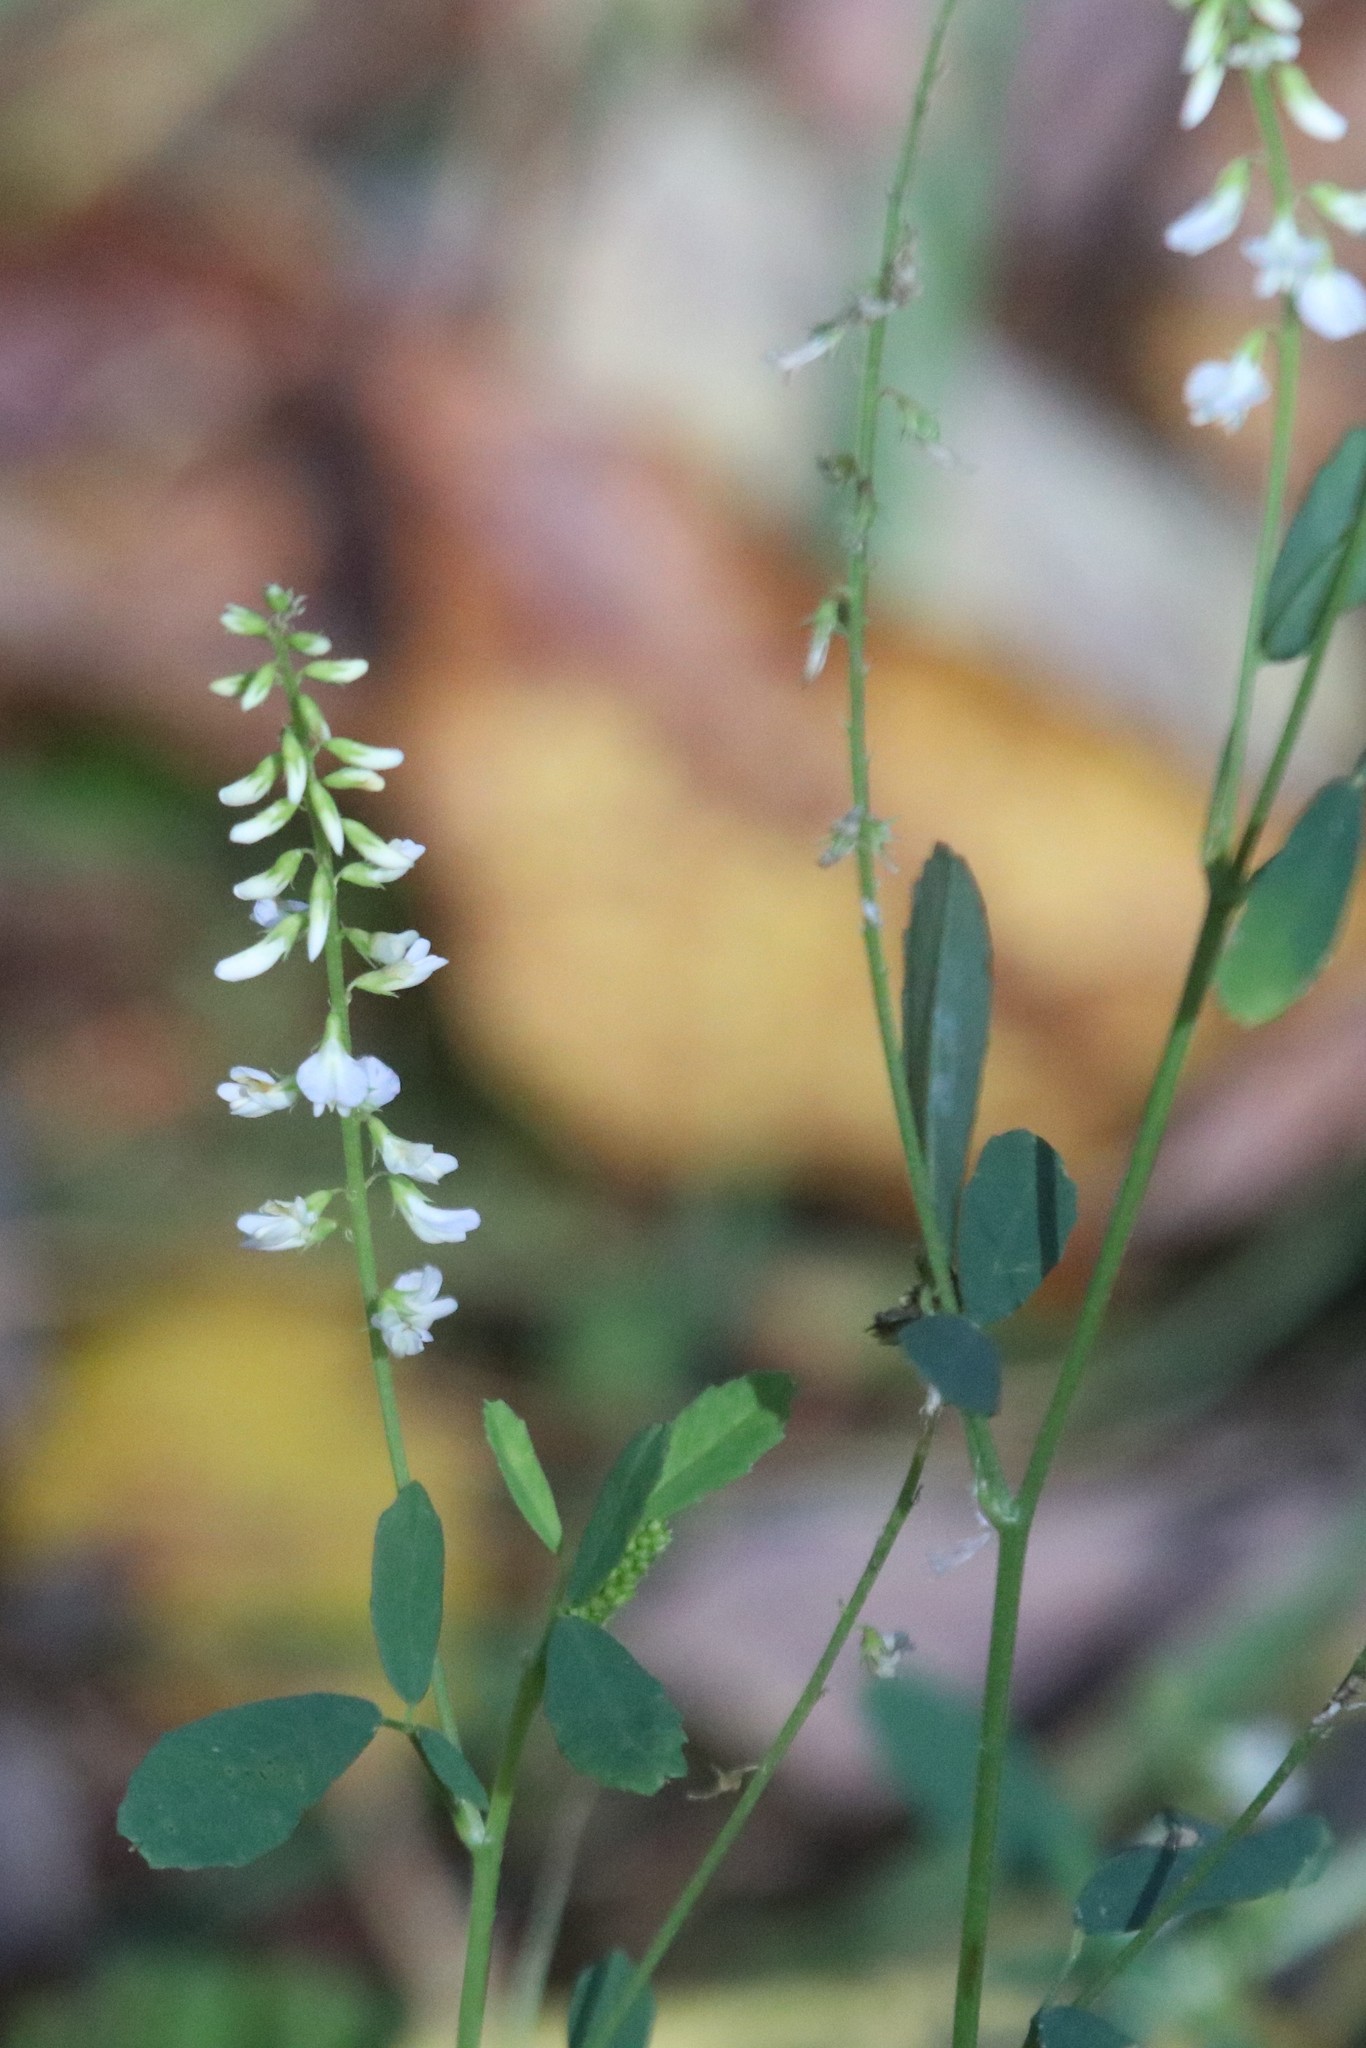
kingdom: Plantae
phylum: Tracheophyta
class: Magnoliopsida
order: Fabales
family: Fabaceae
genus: Melilotus
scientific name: Melilotus albus
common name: White melilot
